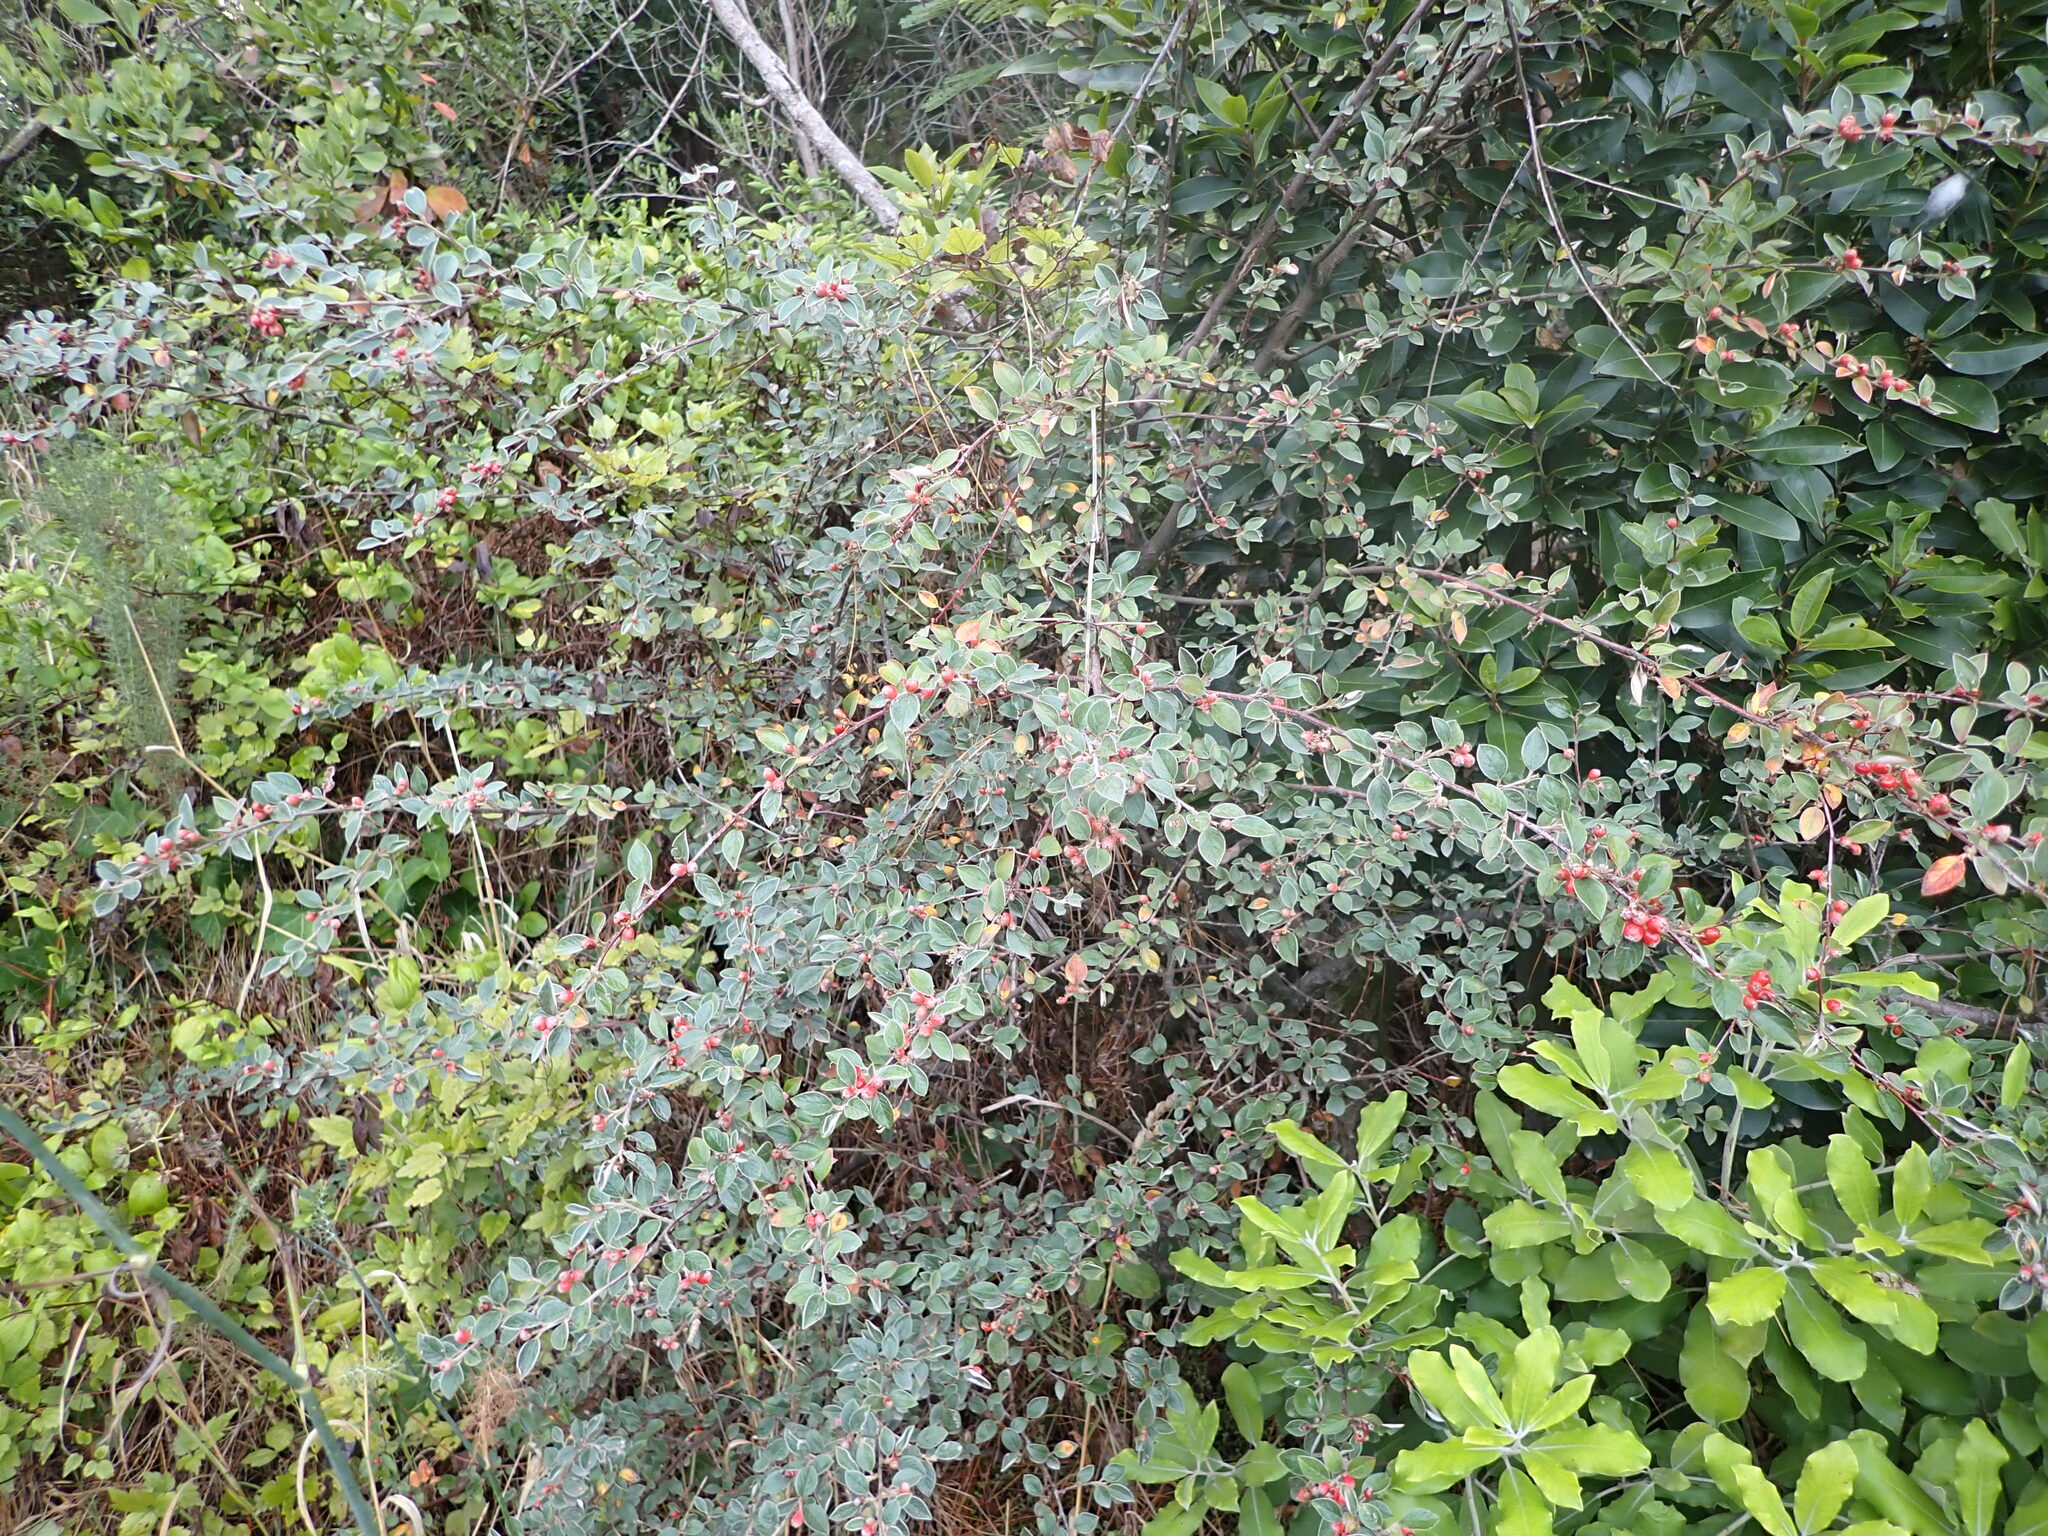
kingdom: Plantae
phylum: Tracheophyta
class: Magnoliopsida
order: Rosales
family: Rosaceae
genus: Cotoneaster
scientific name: Cotoneaster franchetii
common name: Franchet's cotoneaster
